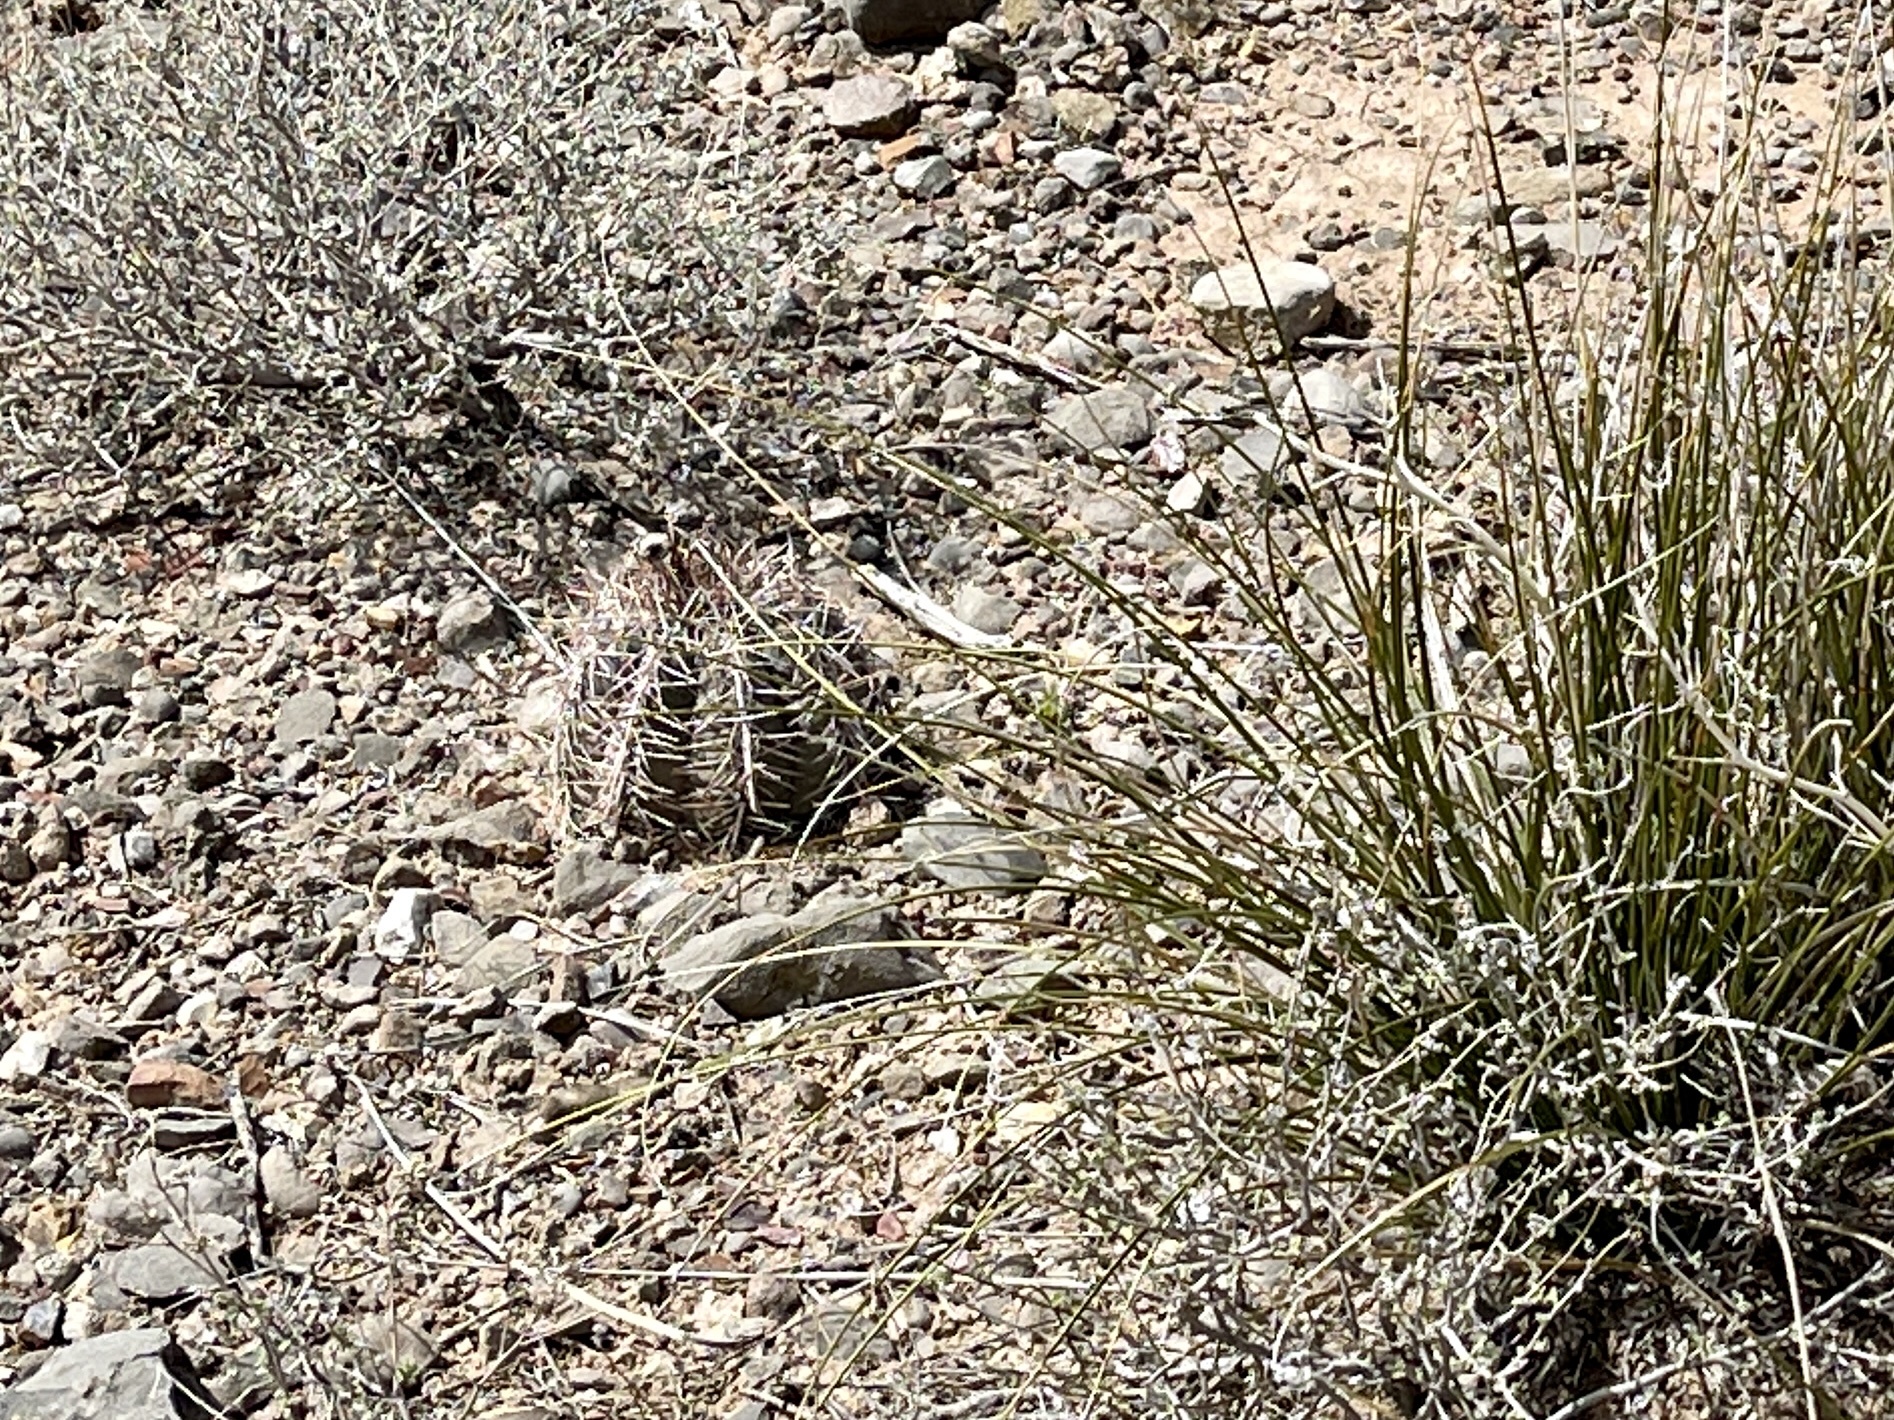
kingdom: Plantae
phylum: Tracheophyta
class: Magnoliopsida
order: Caryophyllales
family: Cactaceae
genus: Echinocactus
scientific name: Echinocactus horizonthalonius
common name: Devilshead
